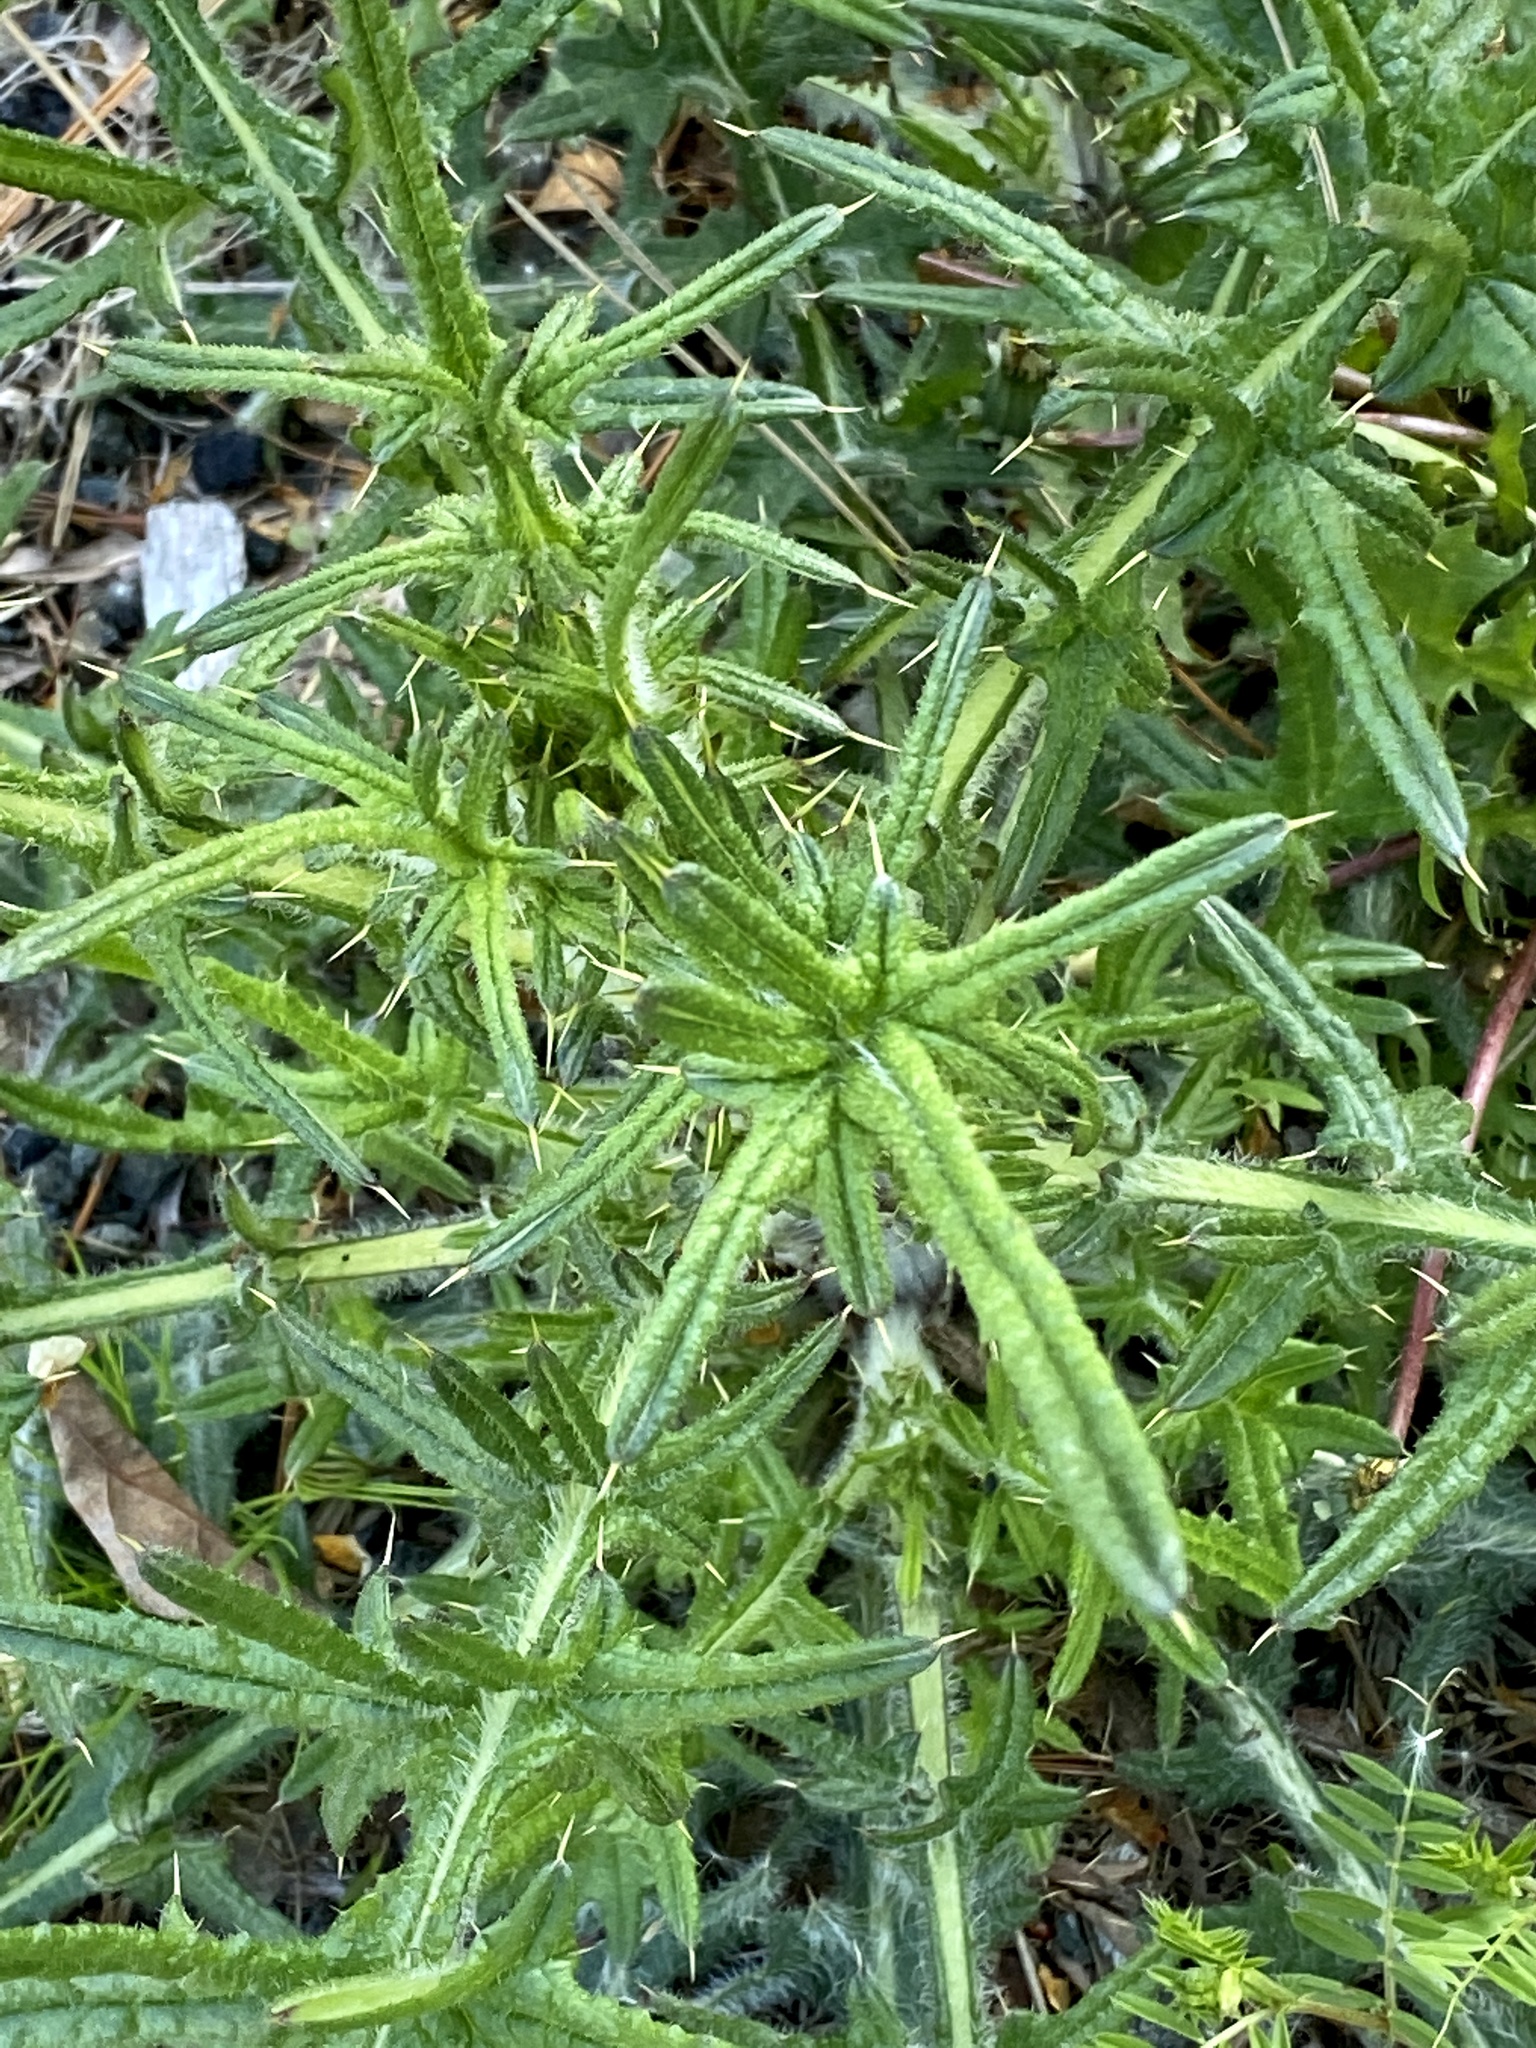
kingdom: Plantae
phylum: Tracheophyta
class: Magnoliopsida
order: Asterales
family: Asteraceae
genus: Cirsium
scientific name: Cirsium vulgare
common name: Bull thistle
